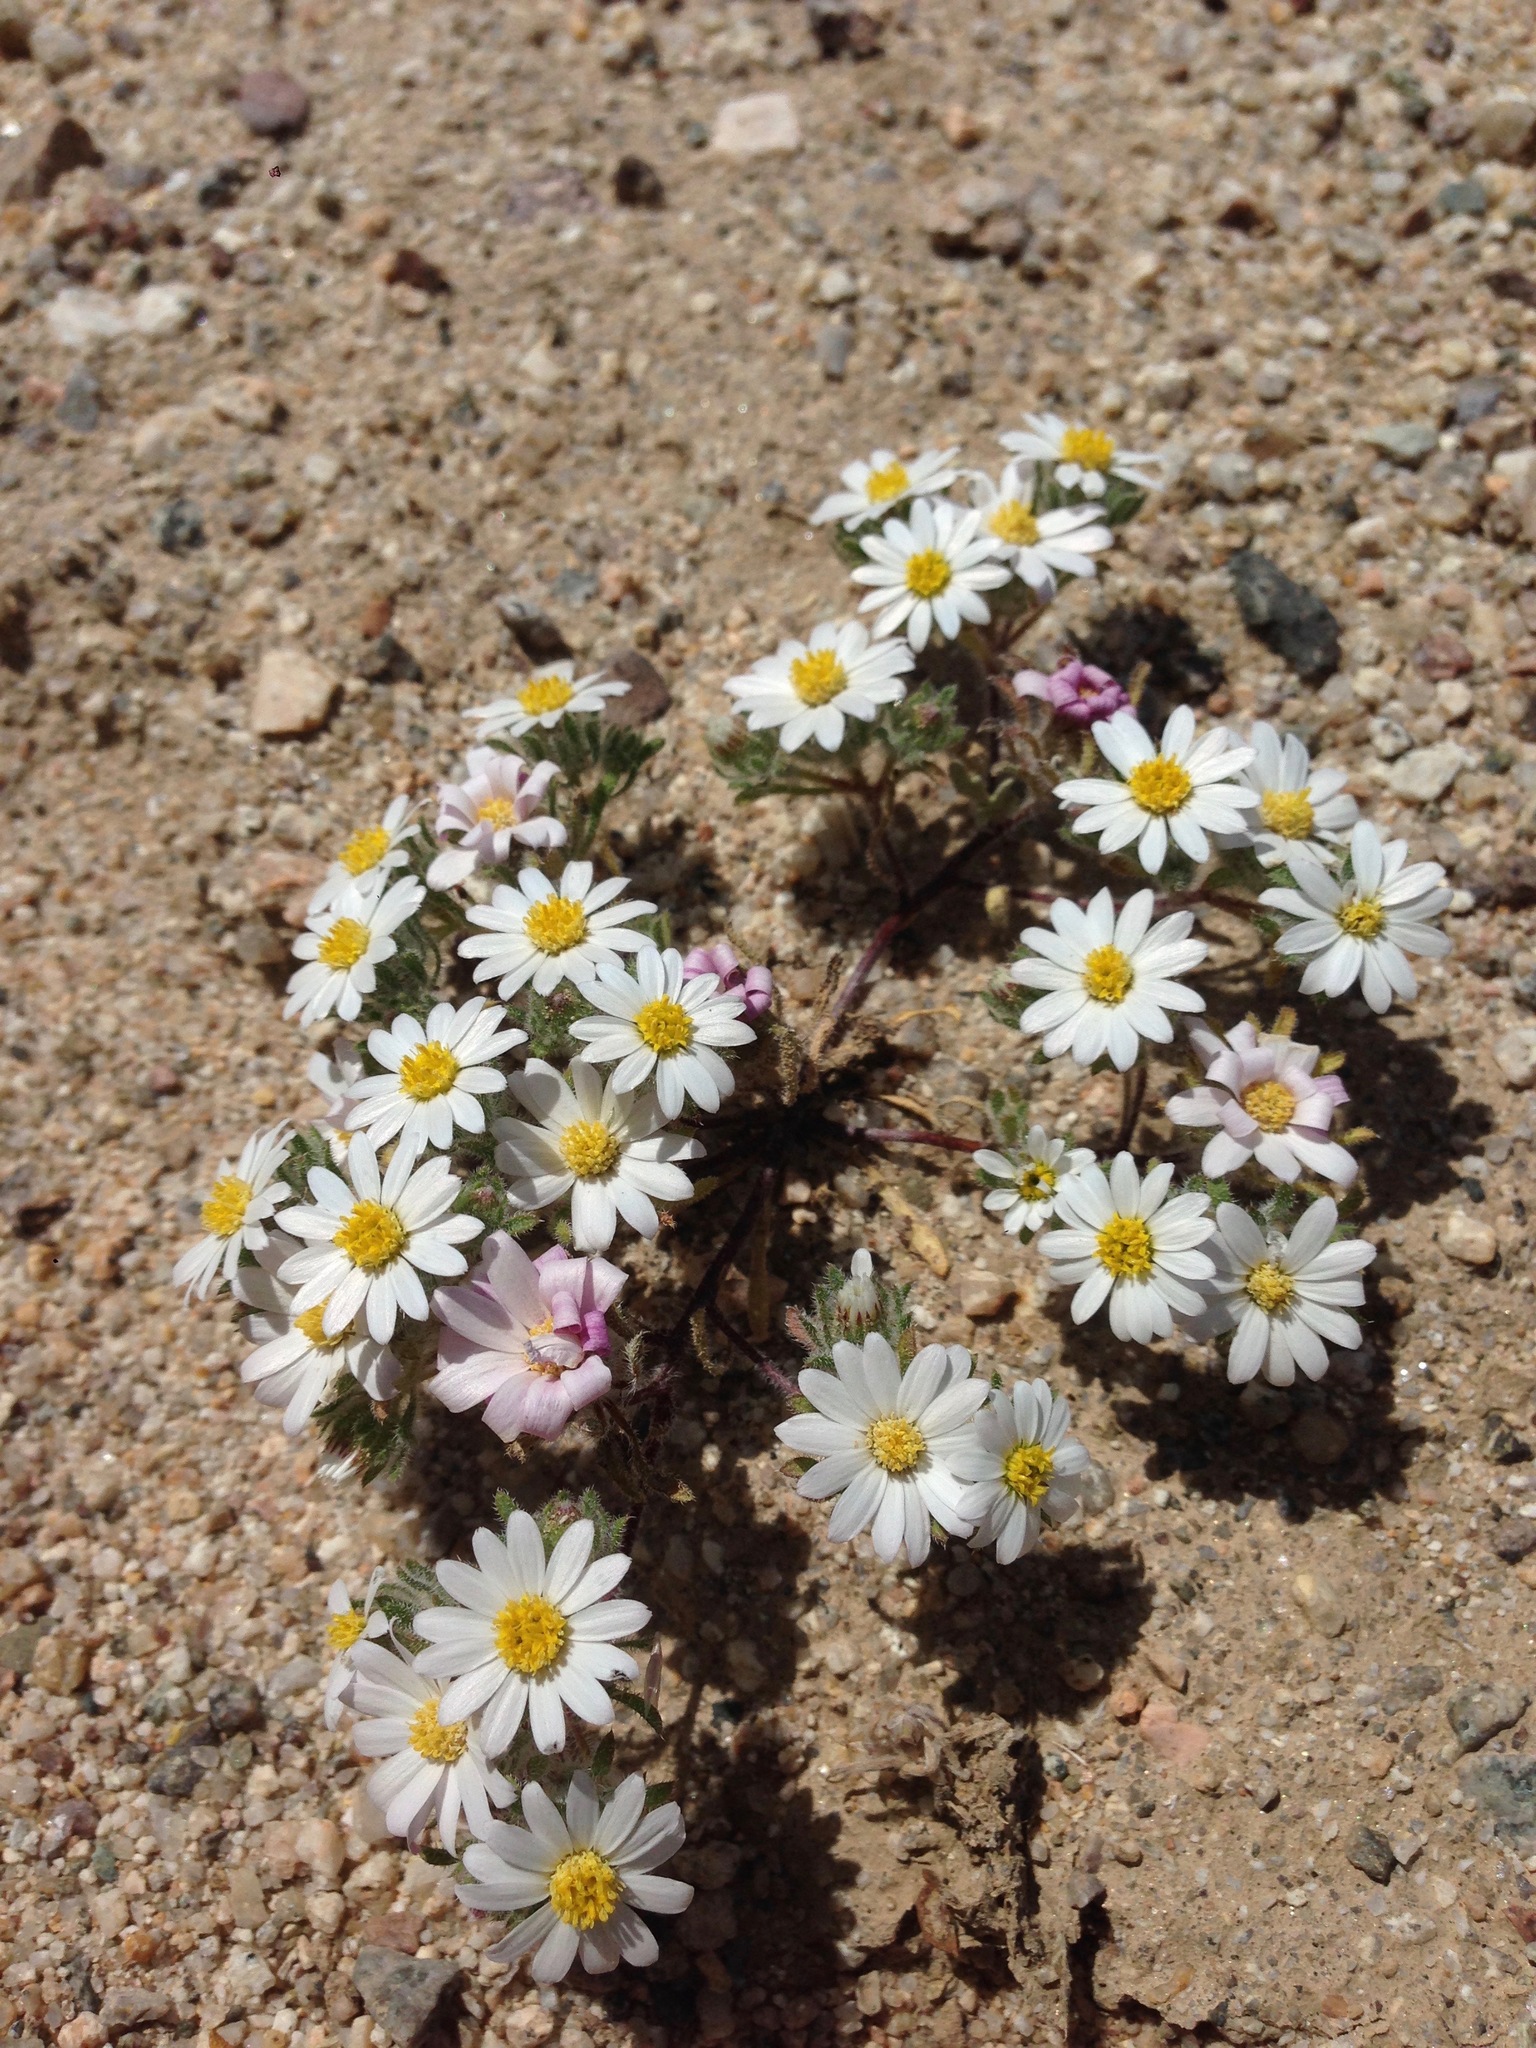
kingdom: Plantae
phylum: Tracheophyta
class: Magnoliopsida
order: Asterales
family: Asteraceae
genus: Monoptilon
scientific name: Monoptilon bellioides
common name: Bristly desertstar
